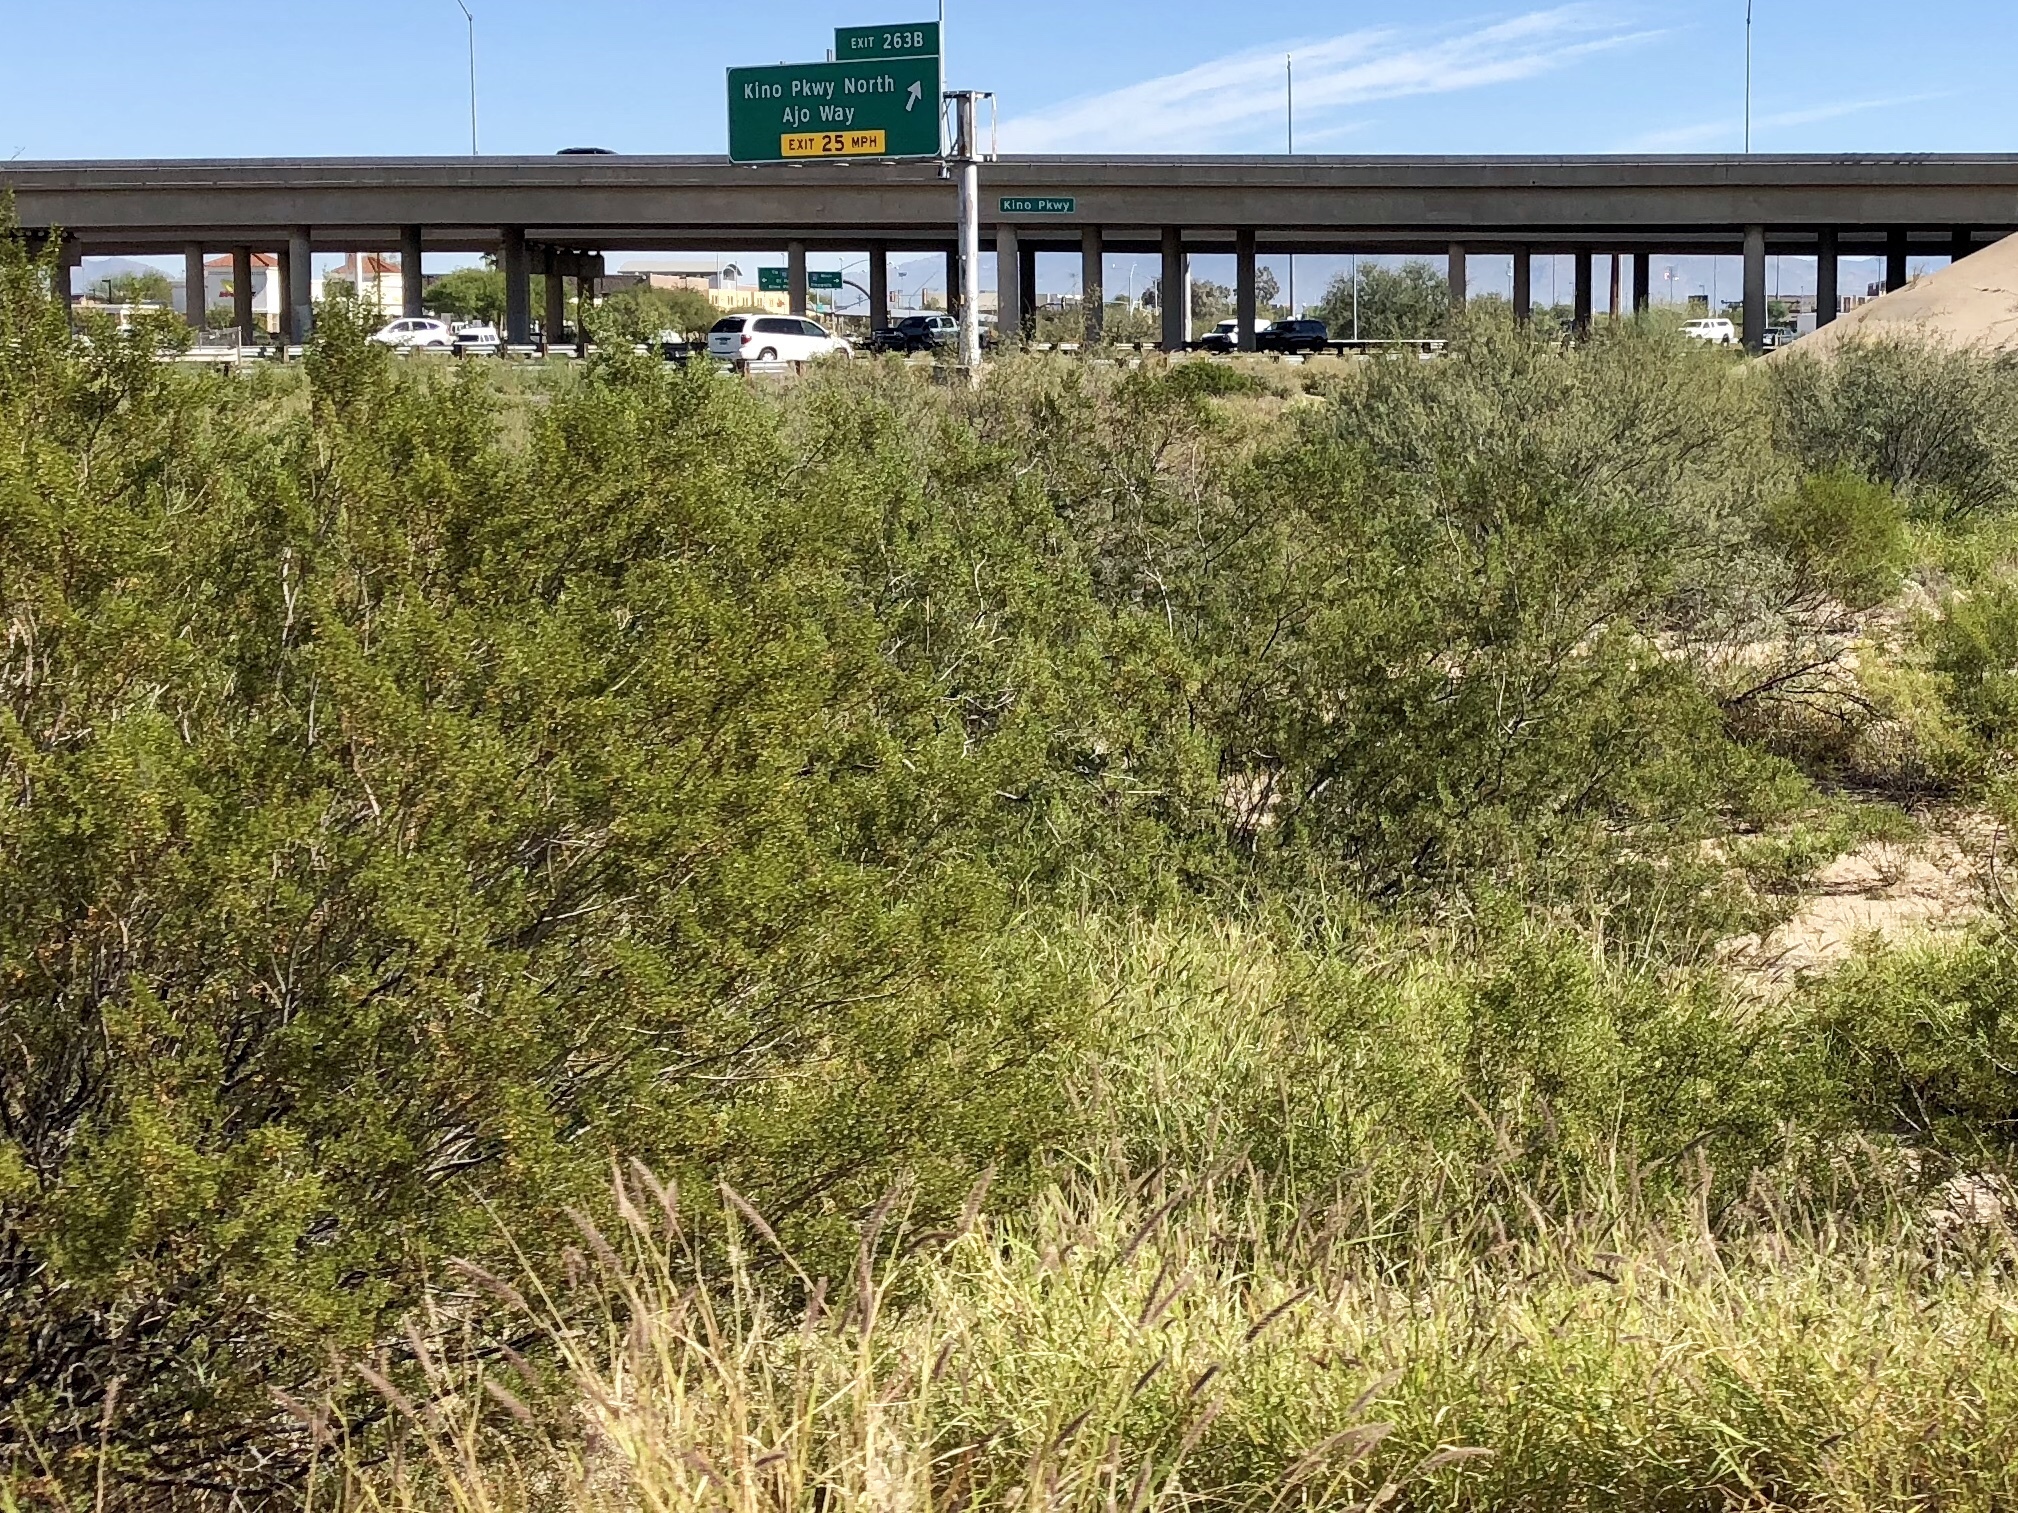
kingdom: Plantae
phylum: Tracheophyta
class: Magnoliopsida
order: Zygophyllales
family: Zygophyllaceae
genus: Larrea
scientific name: Larrea tridentata
